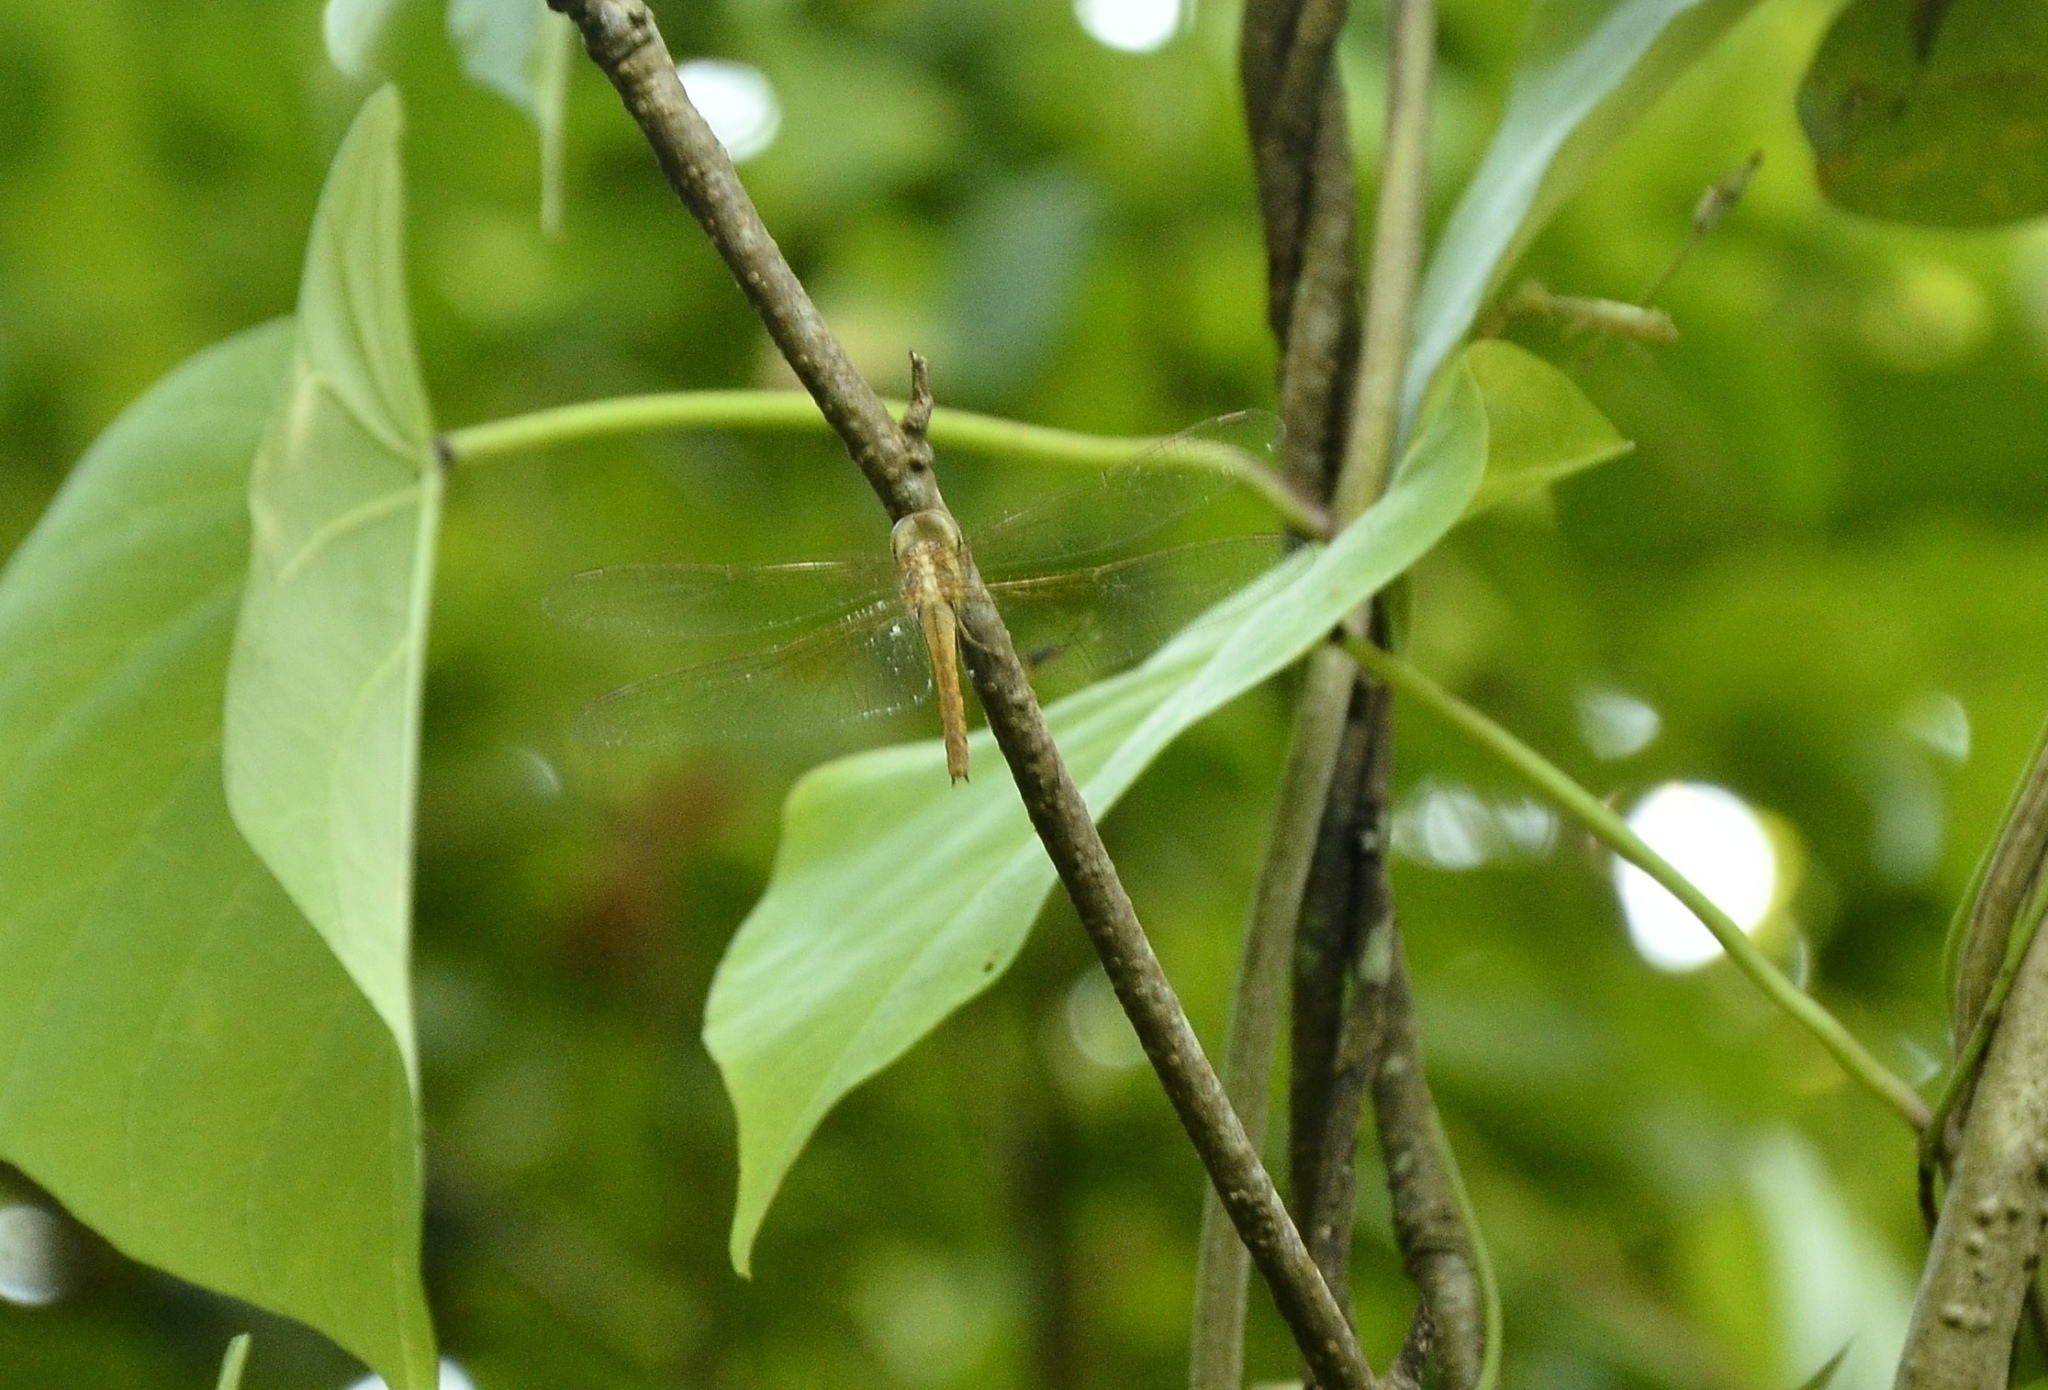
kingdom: Animalia
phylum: Arthropoda
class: Insecta
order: Odonata
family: Libellulidae
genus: Tholymis
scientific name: Tholymis tillarga
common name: Coral-tailed cloud wing
